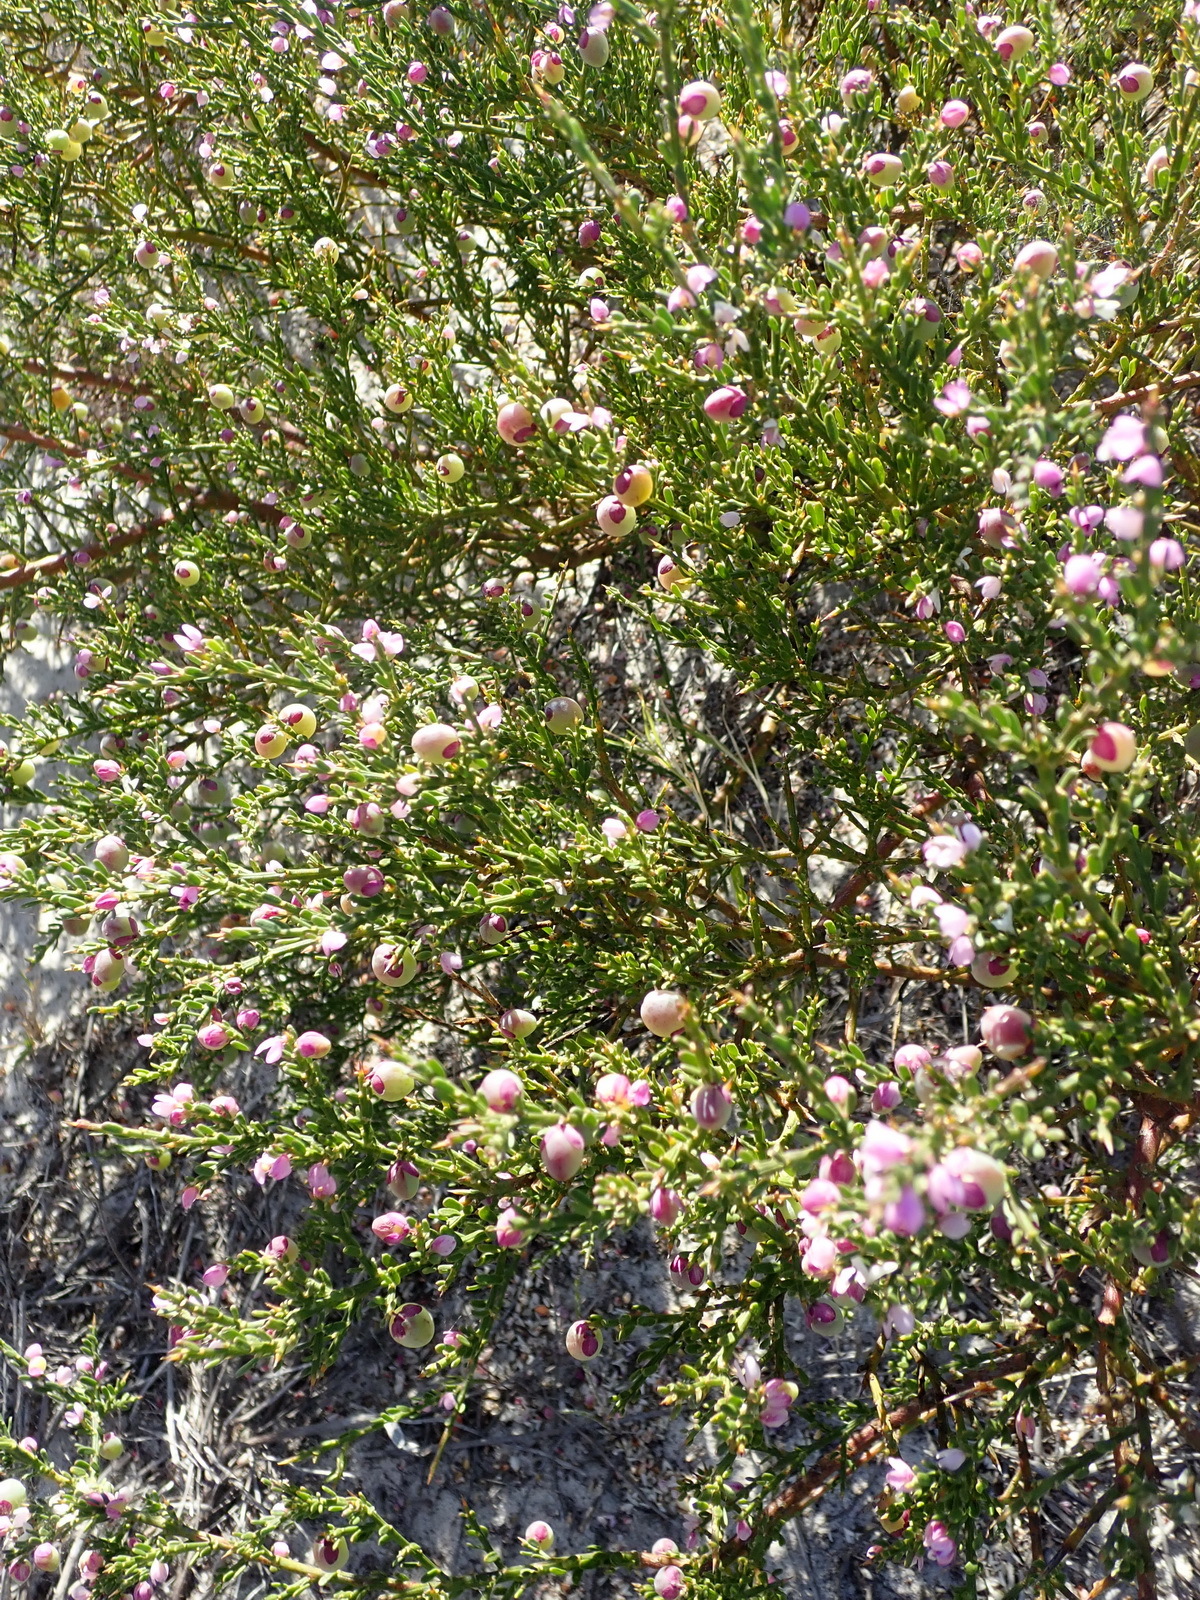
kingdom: Plantae
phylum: Tracheophyta
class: Magnoliopsida
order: Fabales
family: Polygalaceae
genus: Muraltia
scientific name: Muraltia spinosa
